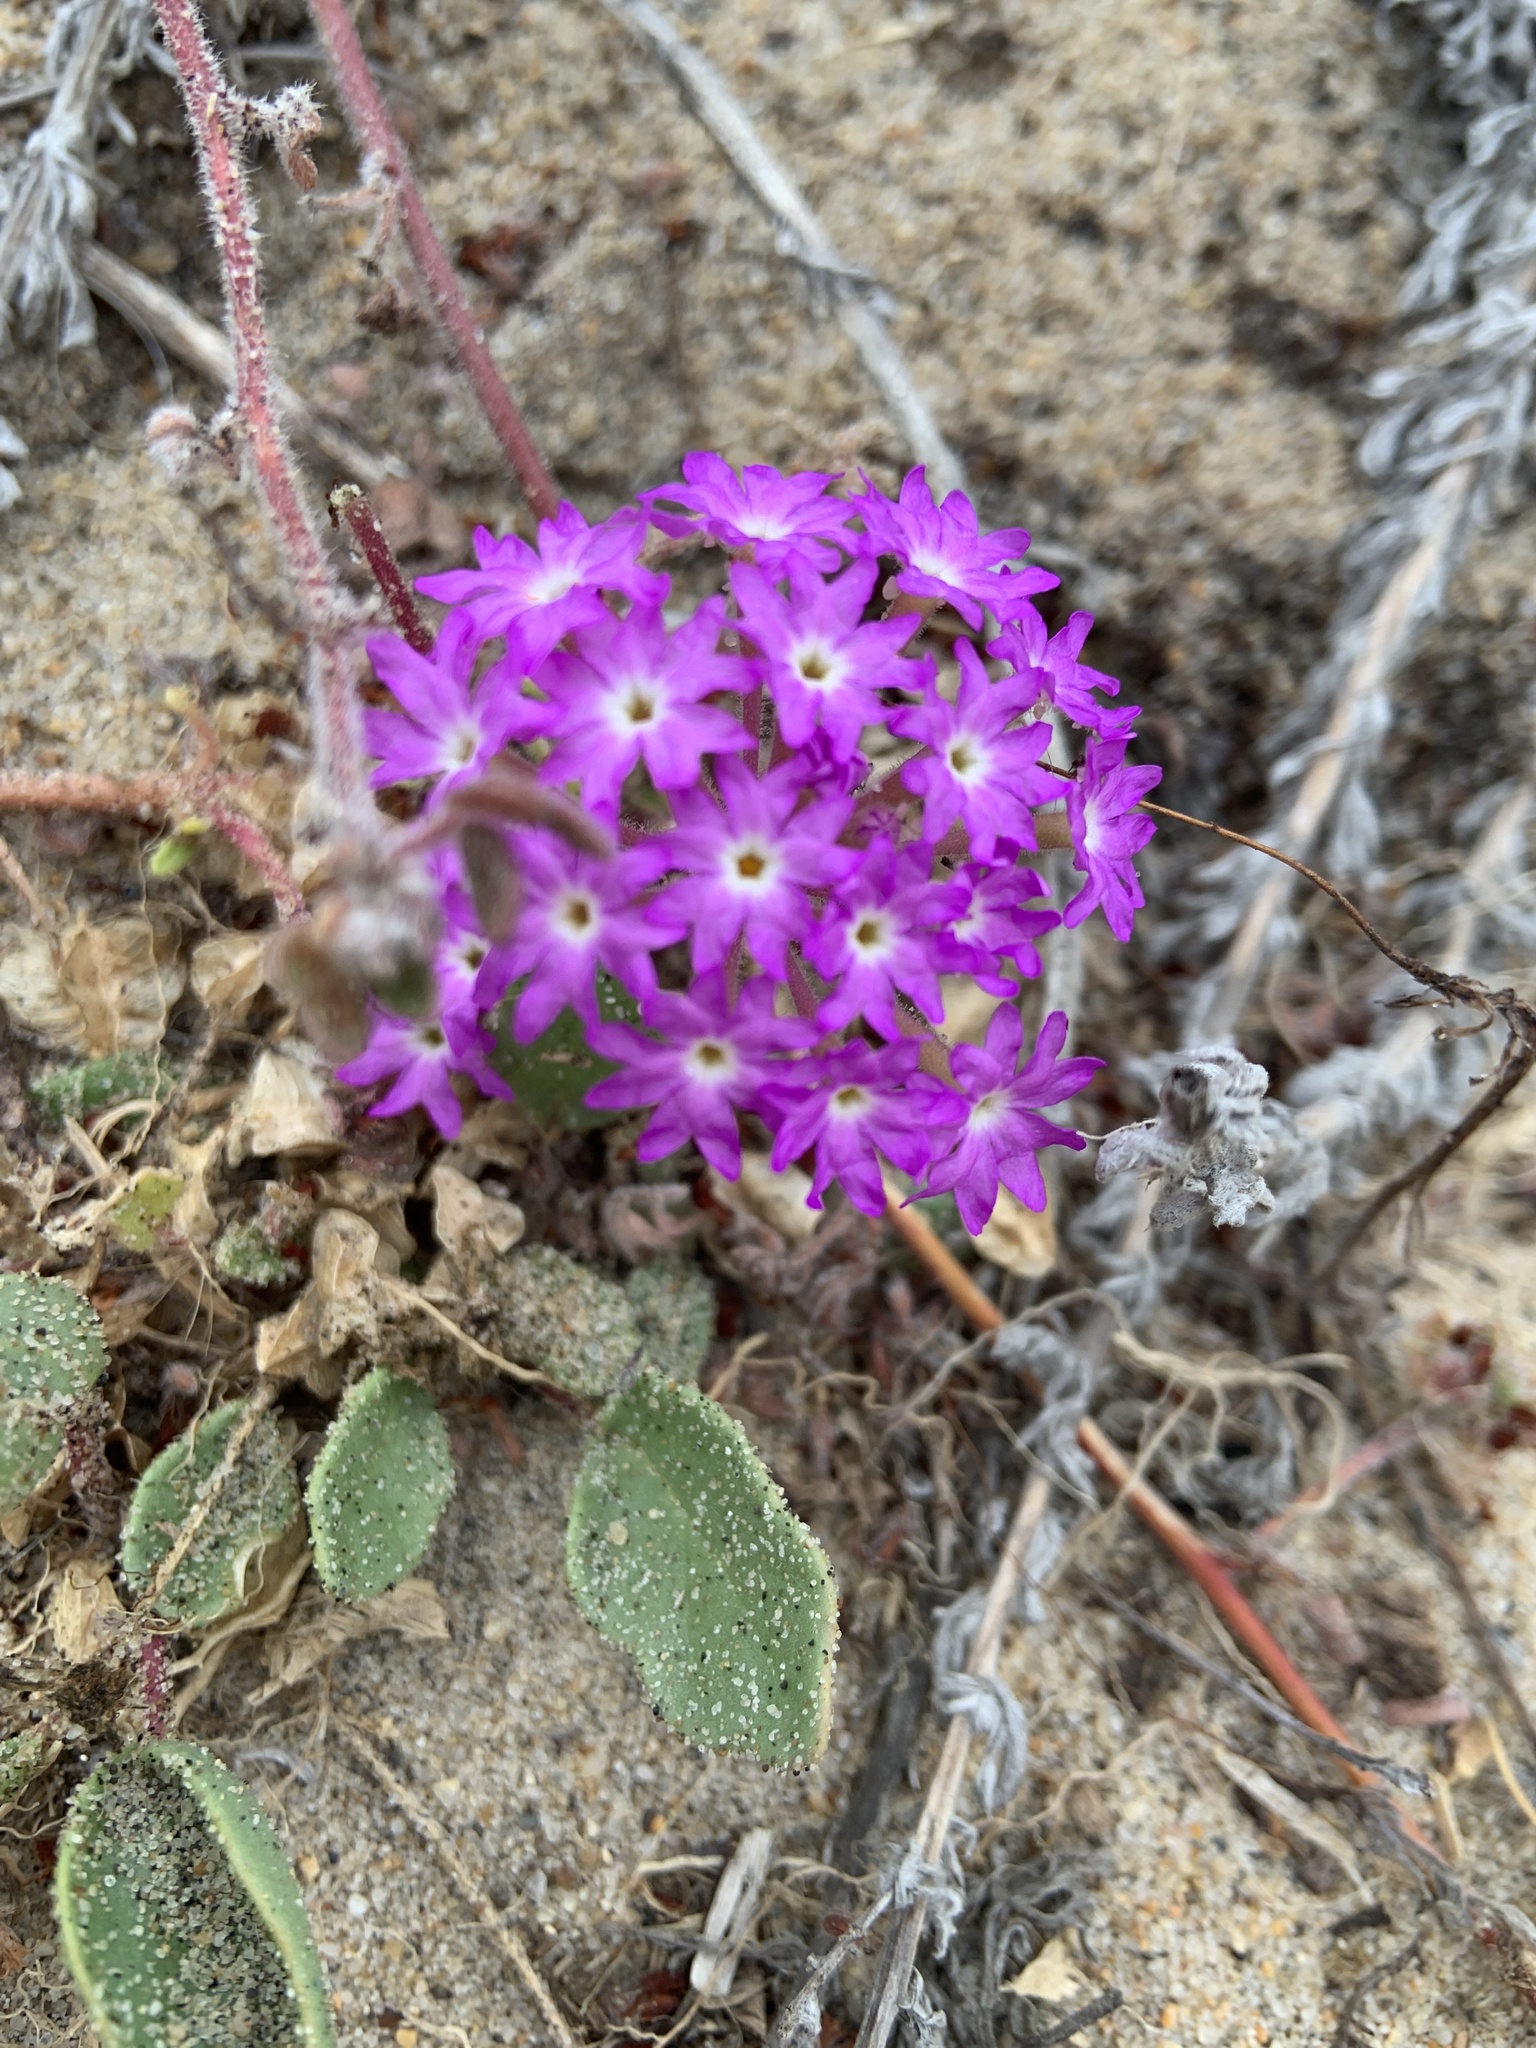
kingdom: Plantae
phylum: Tracheophyta
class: Magnoliopsida
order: Caryophyllales
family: Nyctaginaceae
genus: Abronia
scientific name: Abronia umbellata
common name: Sand-verbena
